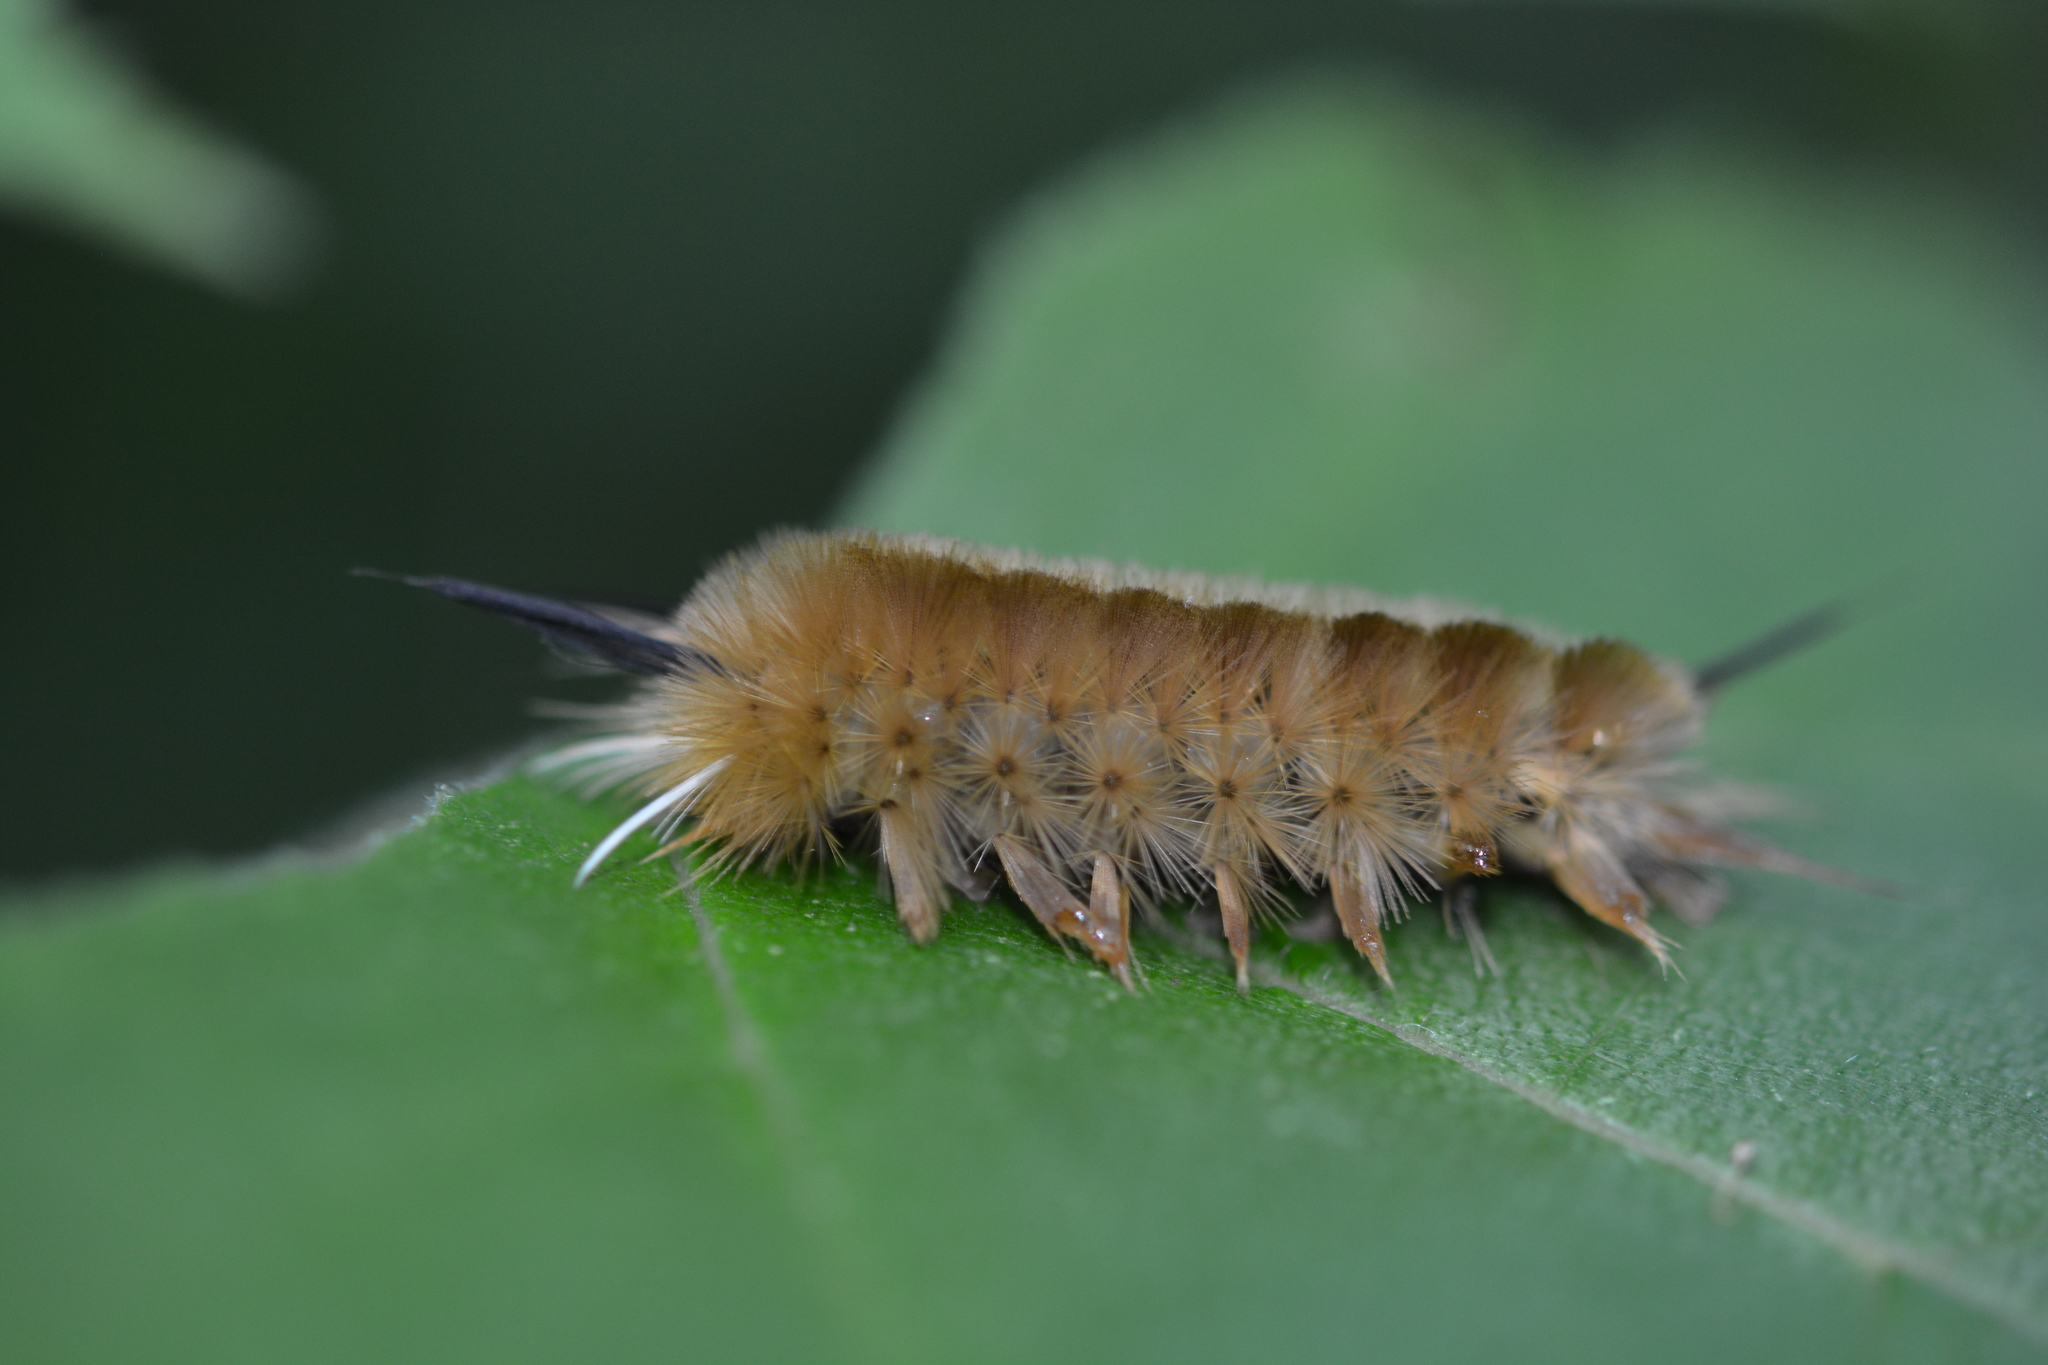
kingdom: Animalia
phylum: Arthropoda
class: Insecta
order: Lepidoptera
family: Erebidae
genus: Halysidota
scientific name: Halysidota tessellaris
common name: Banded tussock moth
